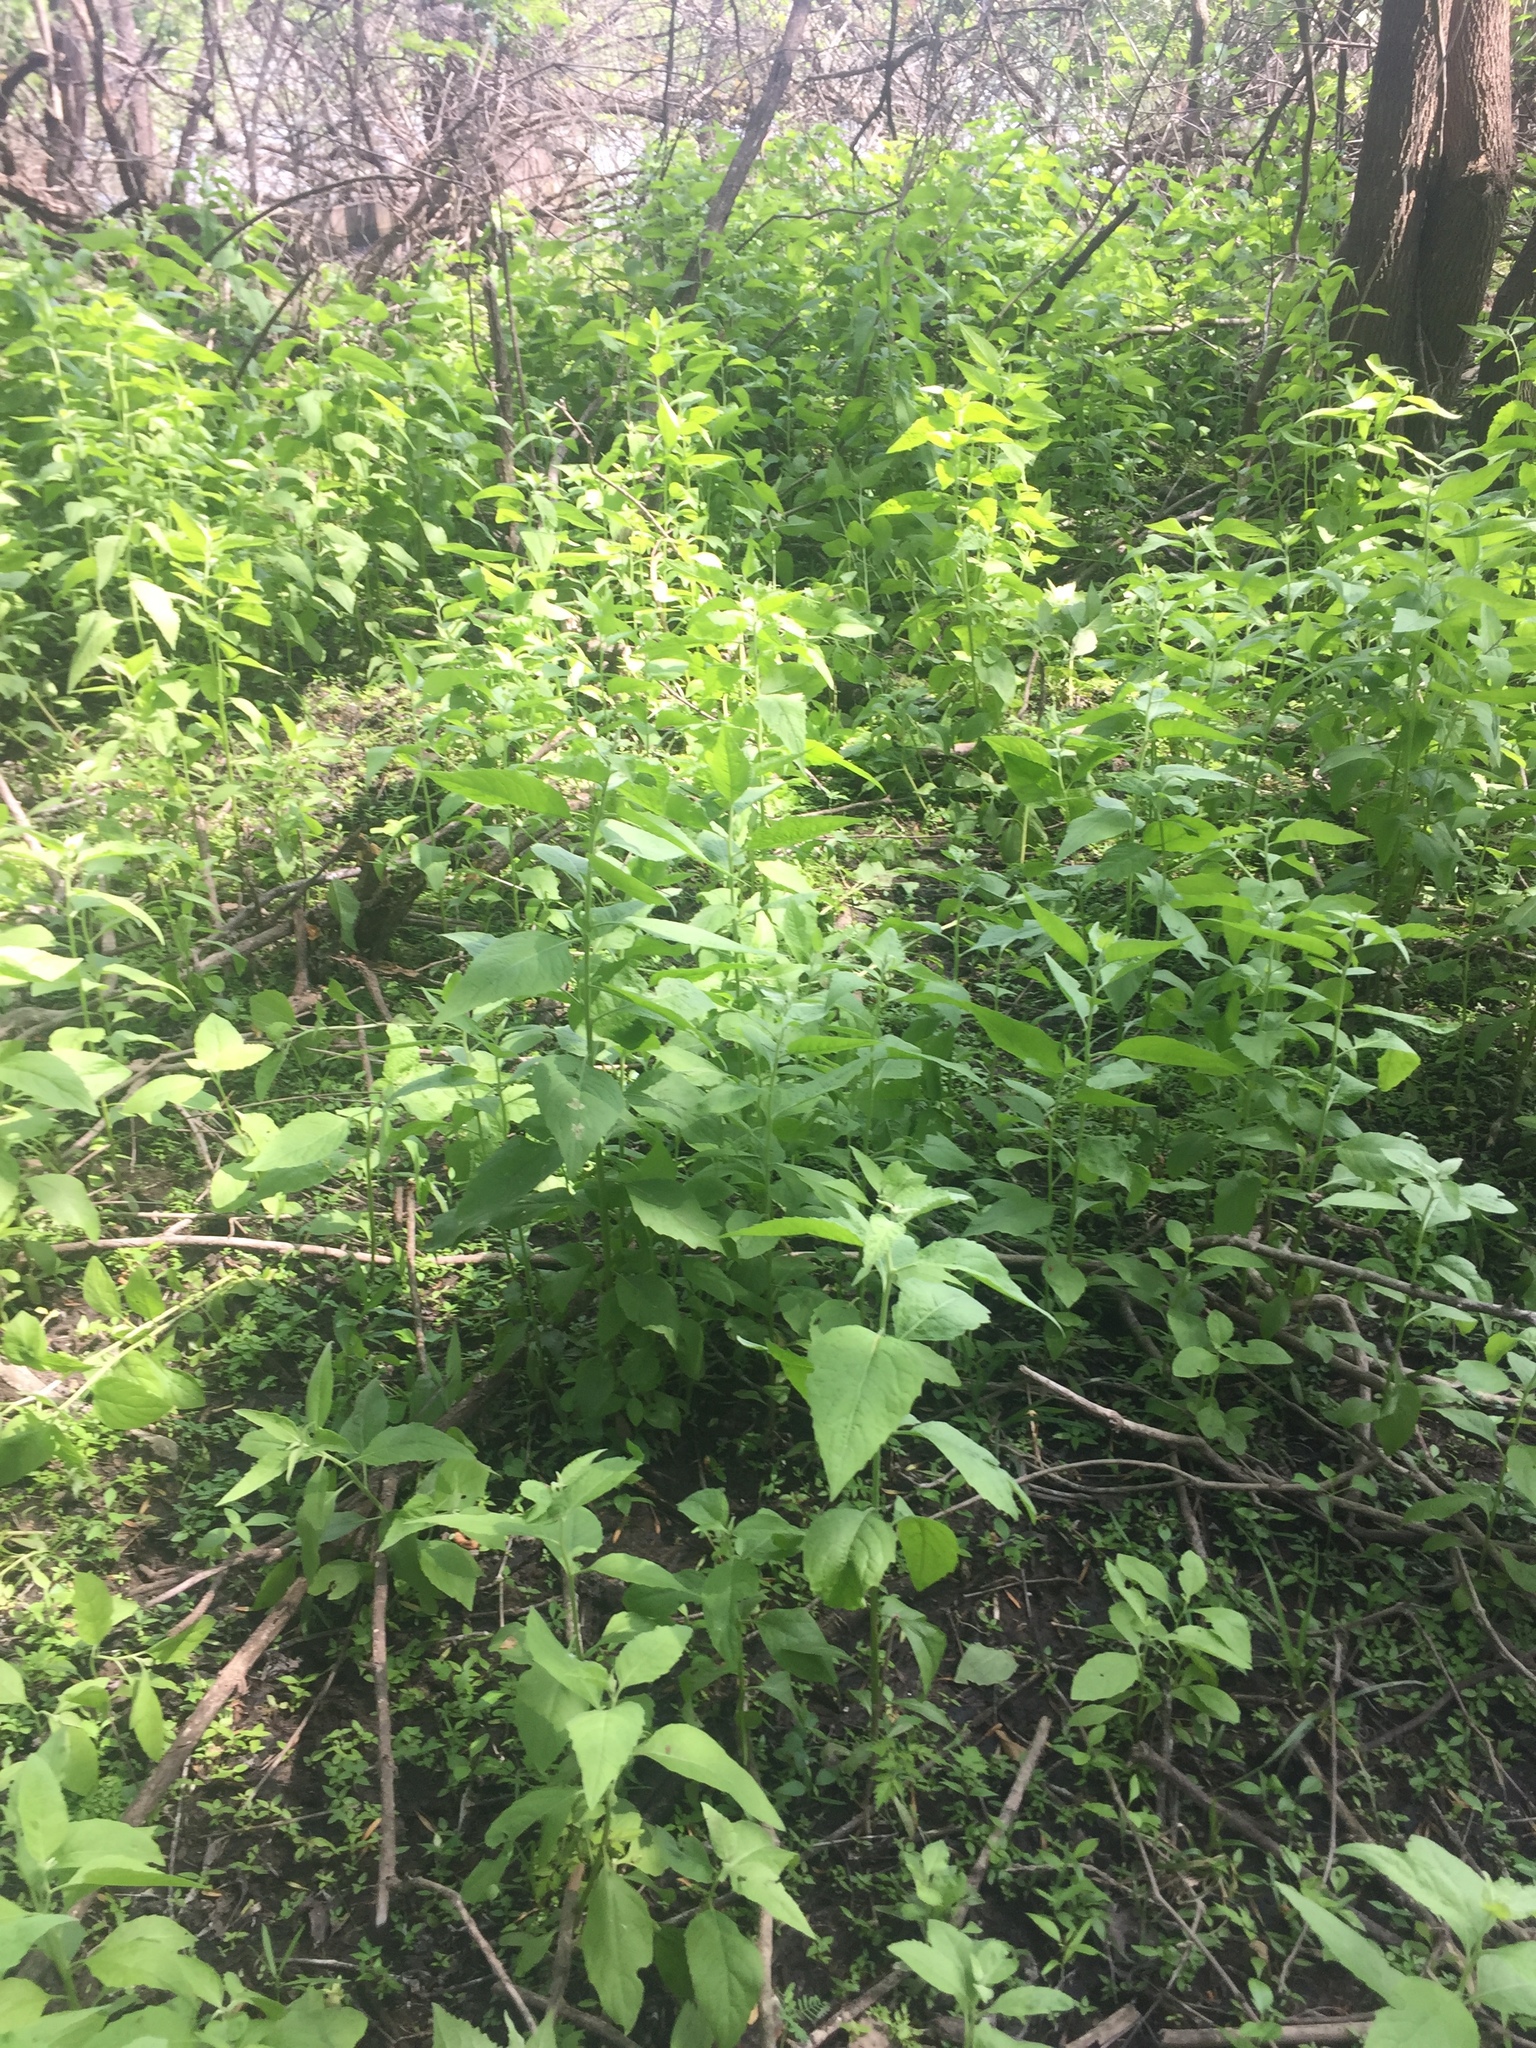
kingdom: Plantae
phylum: Tracheophyta
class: Magnoliopsida
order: Asterales
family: Asteraceae
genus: Pluchea
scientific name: Pluchea odorata
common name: Saltmarsh fleabane
